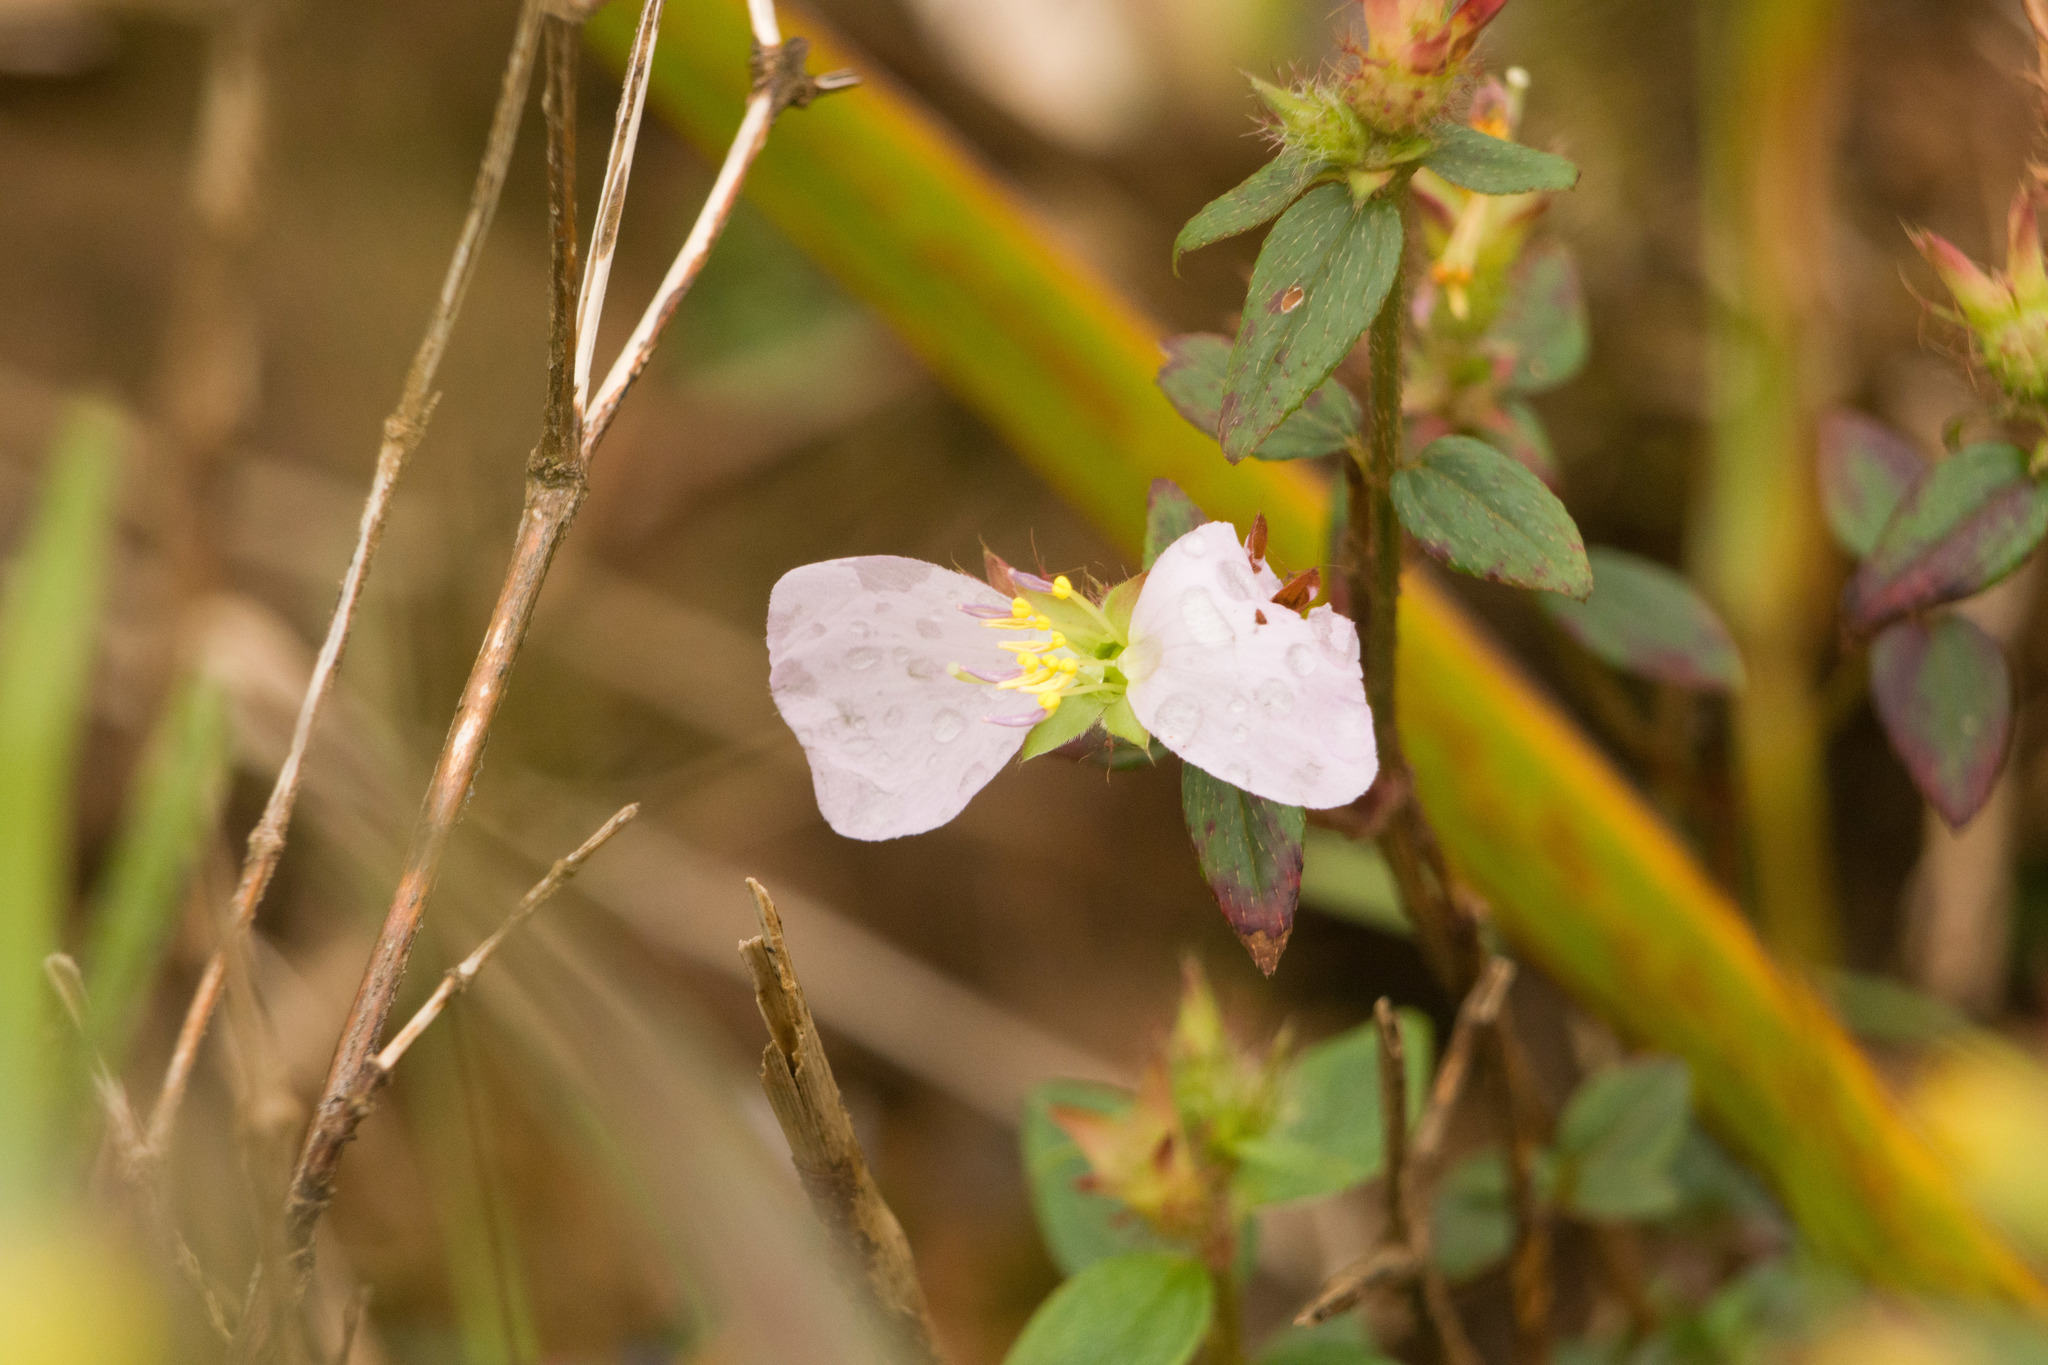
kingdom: Plantae
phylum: Tracheophyta
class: Magnoliopsida
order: Myrtales
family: Melastomataceae
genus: Pterolepis
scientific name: Pterolepis glomerata
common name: False meadowbeauty
